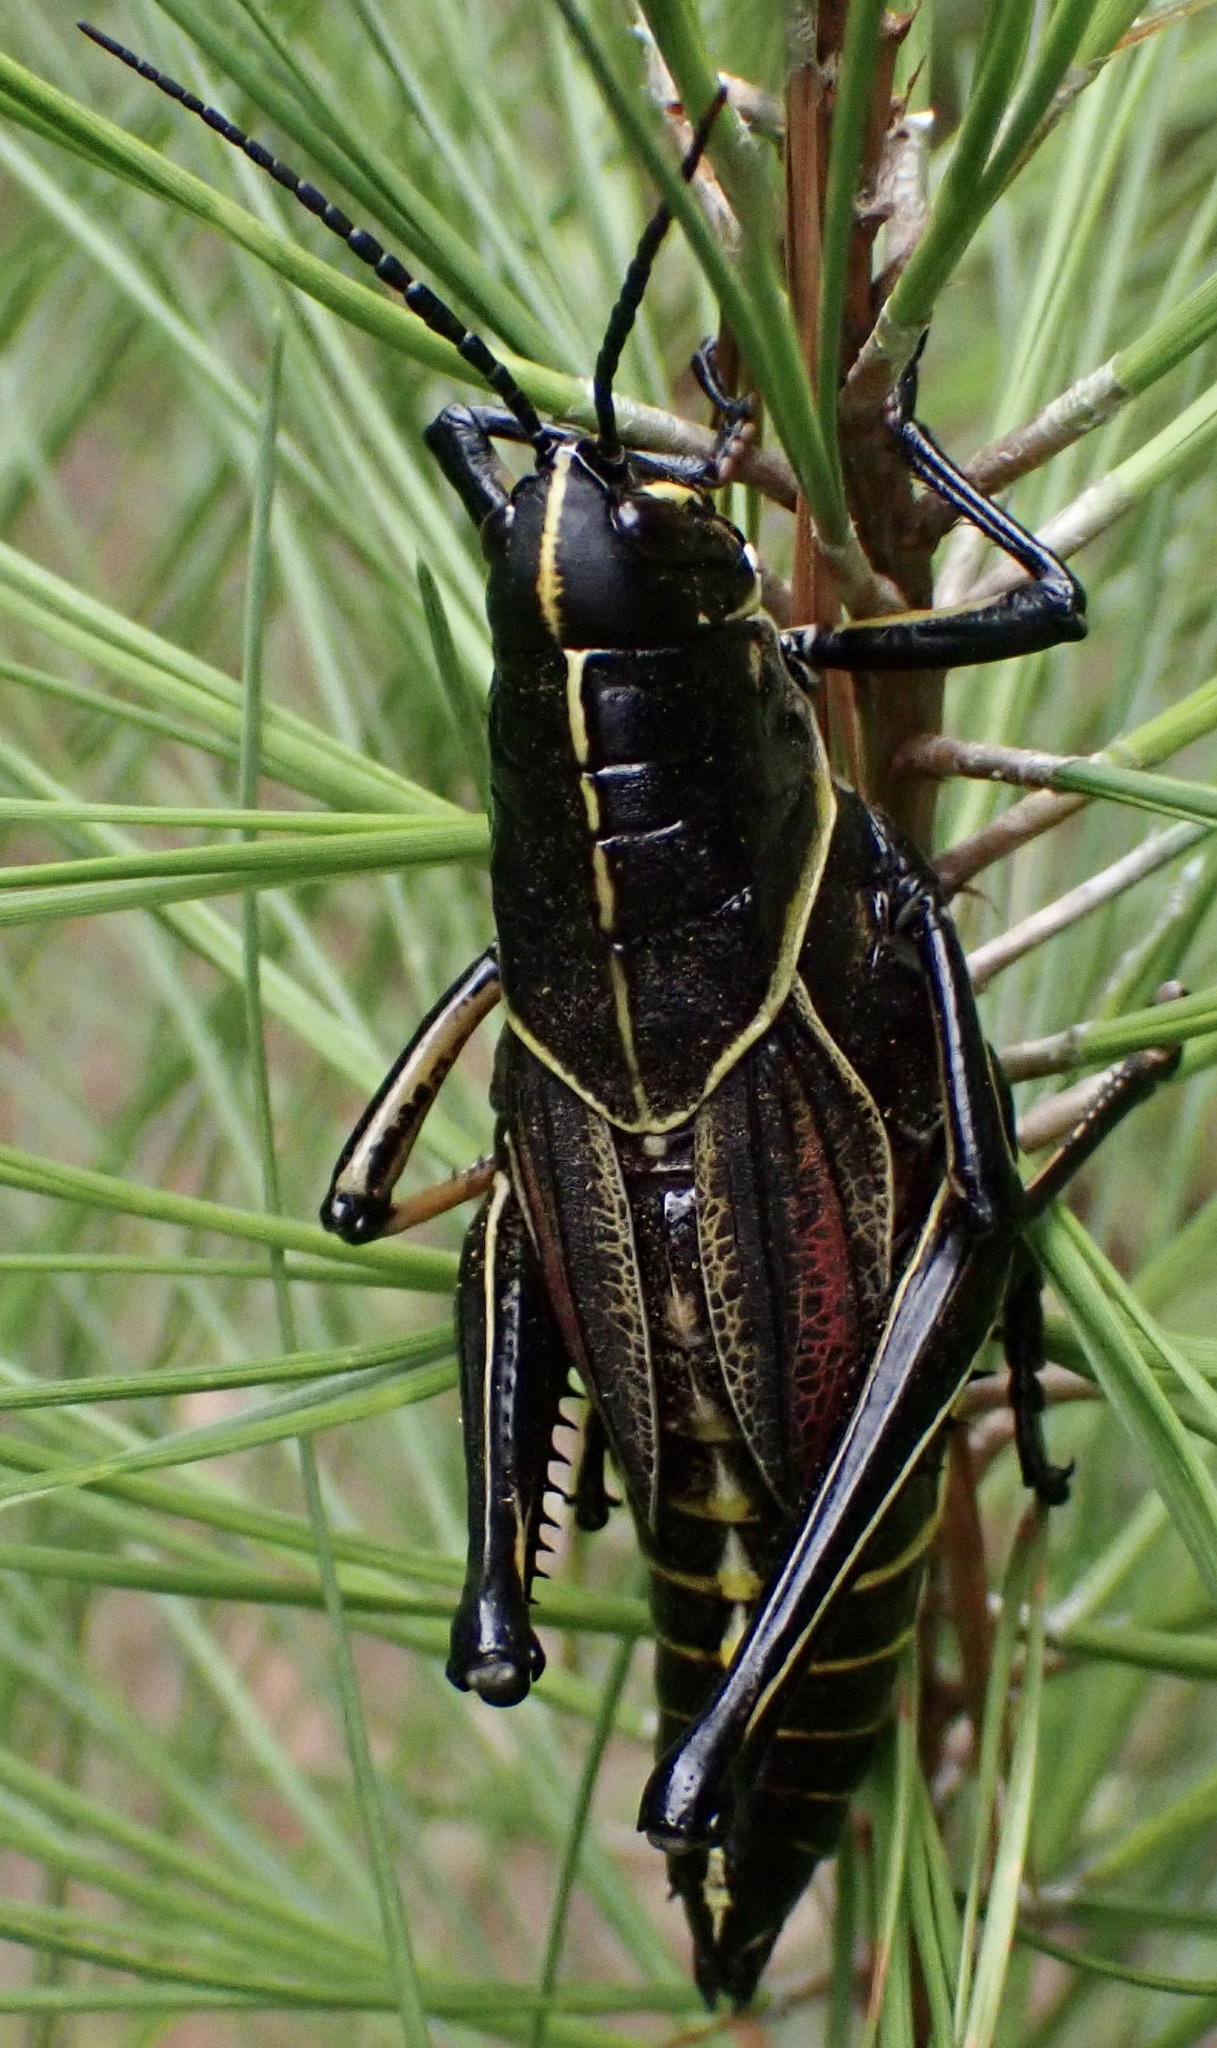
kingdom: Animalia
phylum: Arthropoda
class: Insecta
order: Orthoptera
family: Romaleidae
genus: Romalea
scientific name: Romalea microptera
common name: Eastern lubber grasshopper
